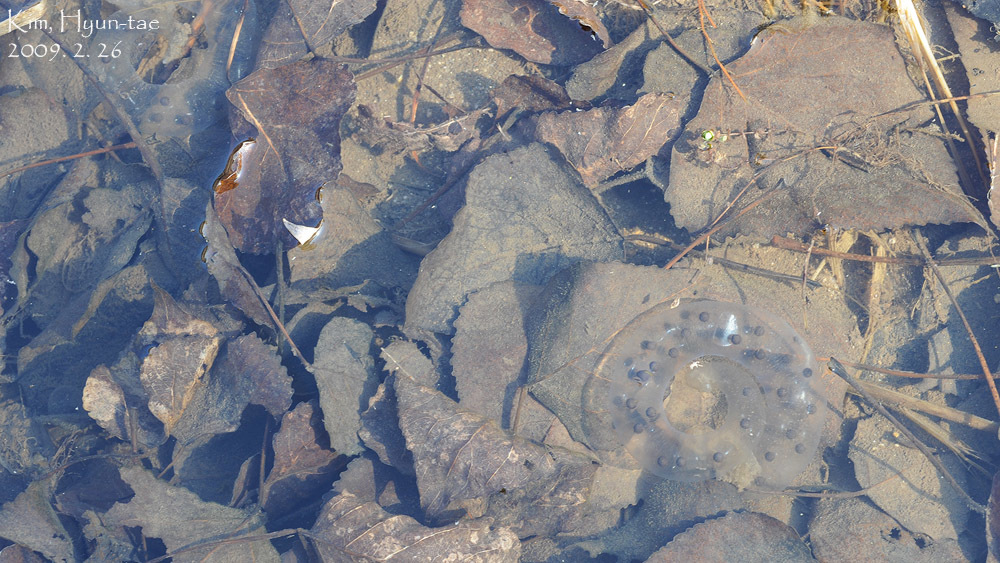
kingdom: Animalia
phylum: Chordata
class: Amphibia
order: Caudata
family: Hynobiidae
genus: Hynobius
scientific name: Hynobius leechii
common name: Gensan salamander
